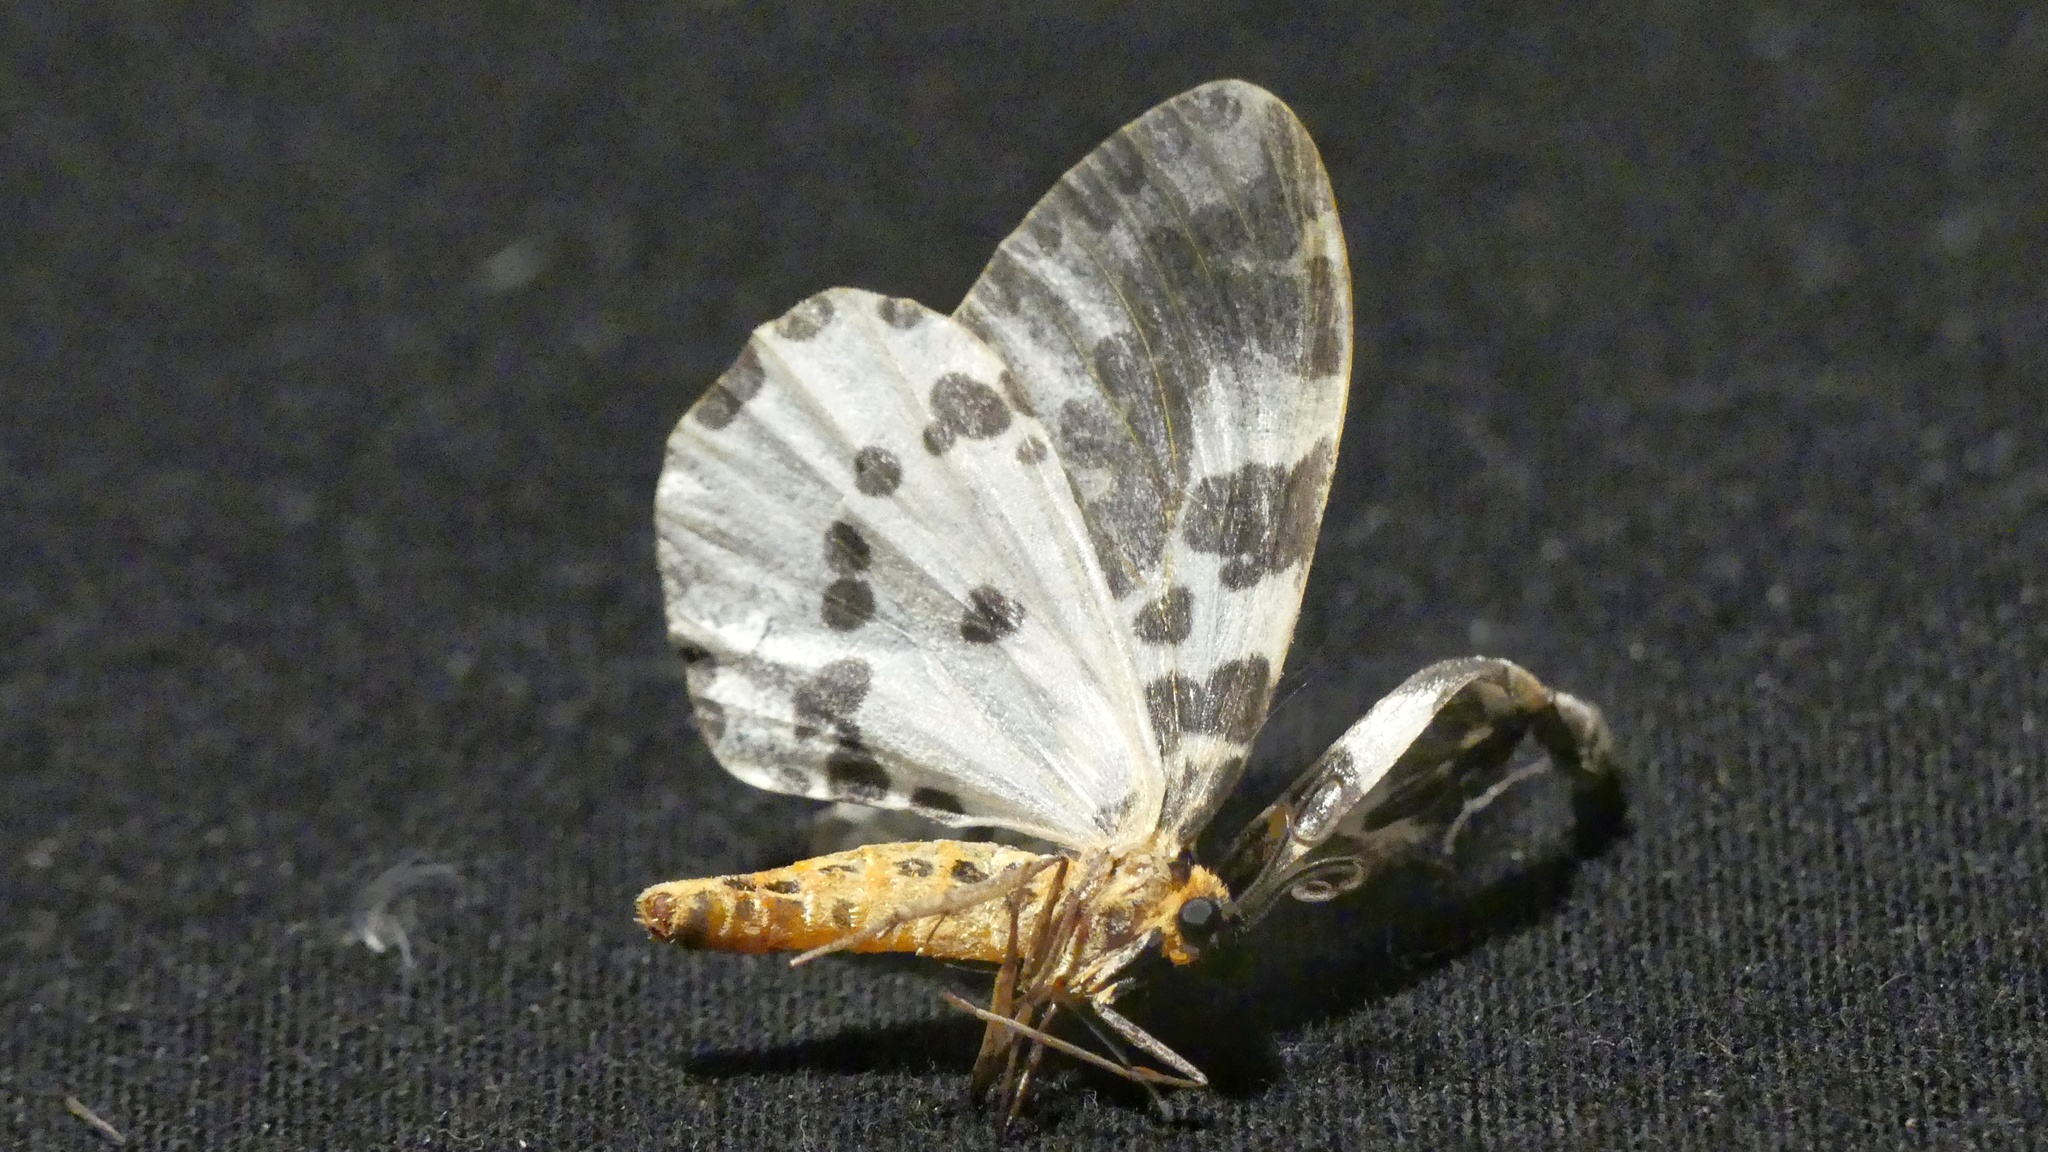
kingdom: Animalia
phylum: Arthropoda
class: Insecta
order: Lepidoptera
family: Geometridae
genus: Abraxas
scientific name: Abraxas grossulariata
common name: Magpie
